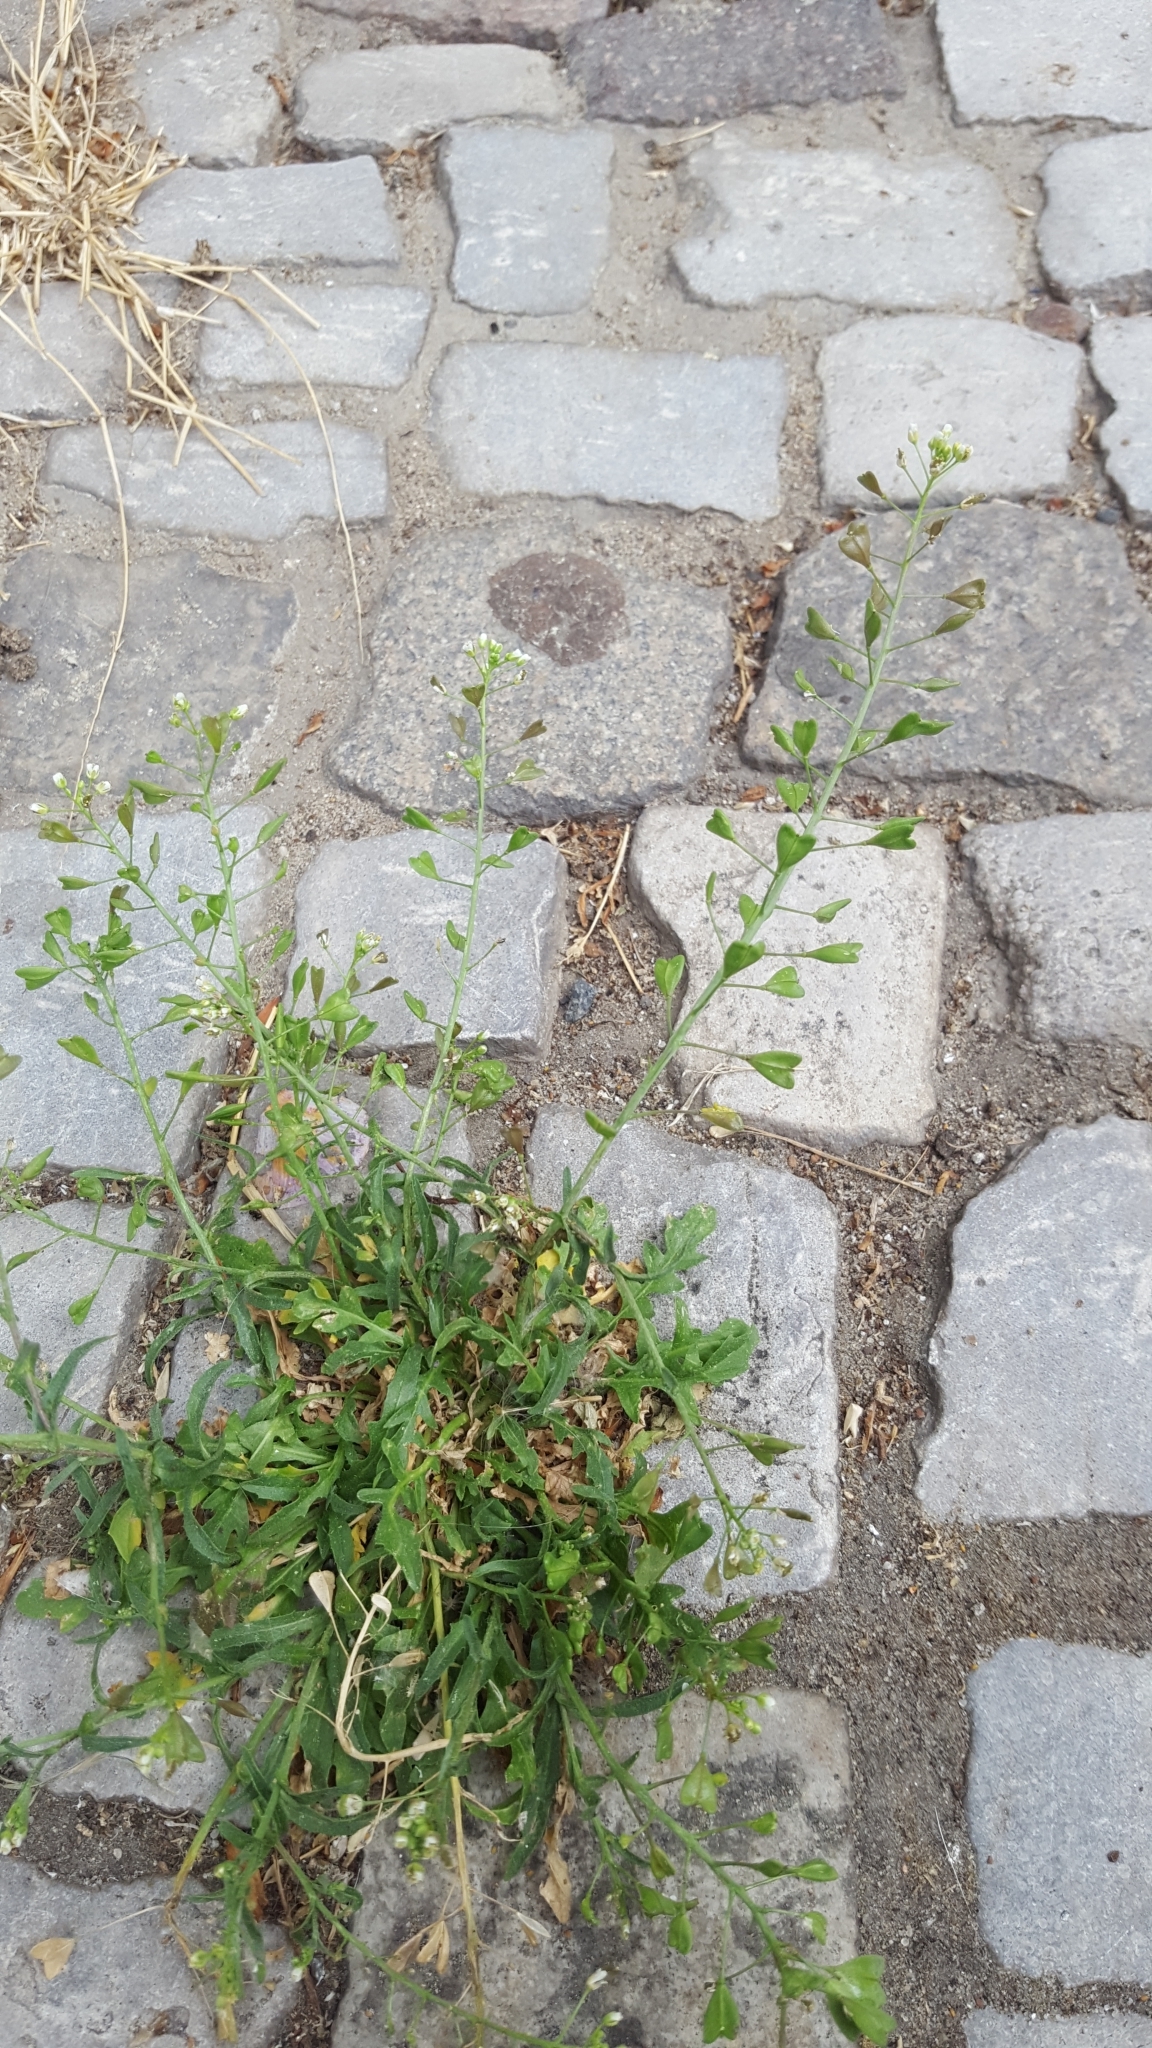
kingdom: Plantae
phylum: Tracheophyta
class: Magnoliopsida
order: Brassicales
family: Brassicaceae
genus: Capsella
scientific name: Capsella bursa-pastoris
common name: Shepherd's purse
